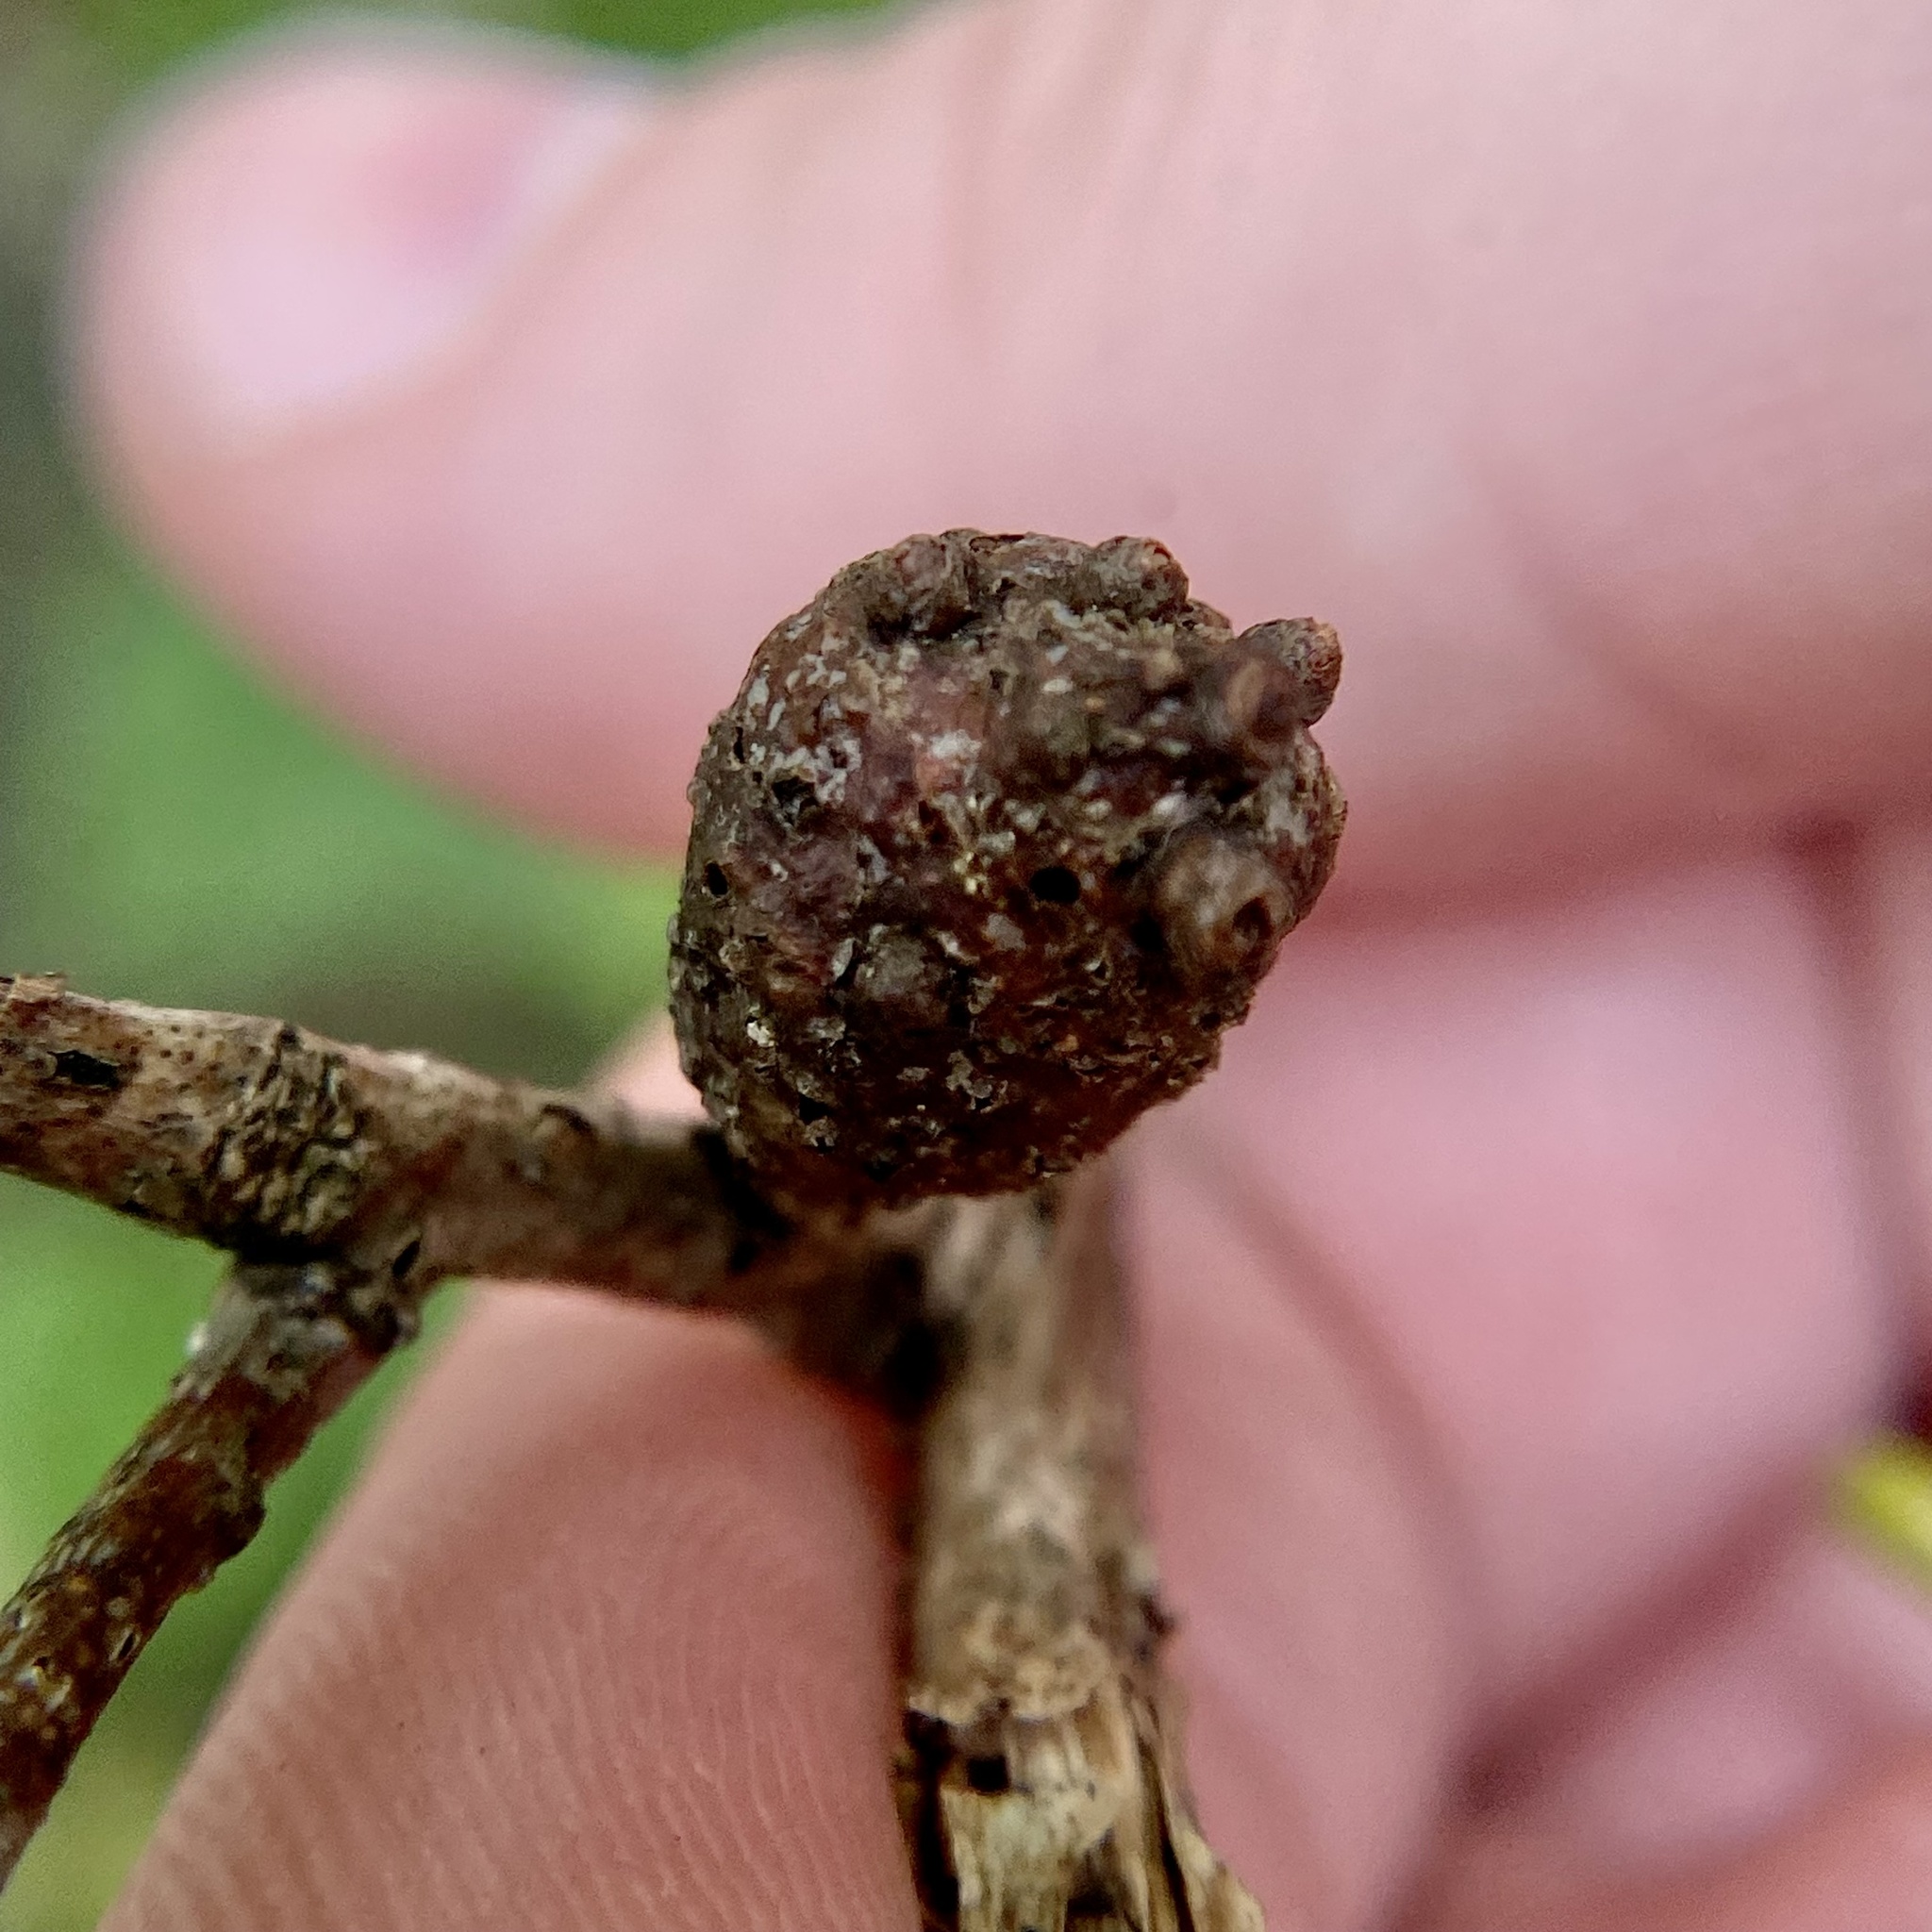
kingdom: Animalia
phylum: Arthropoda
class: Insecta
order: Hymenoptera
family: Cynipidae
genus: Neuroterus
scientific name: Neuroterus quercusbaccarum
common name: Common spangle gall
